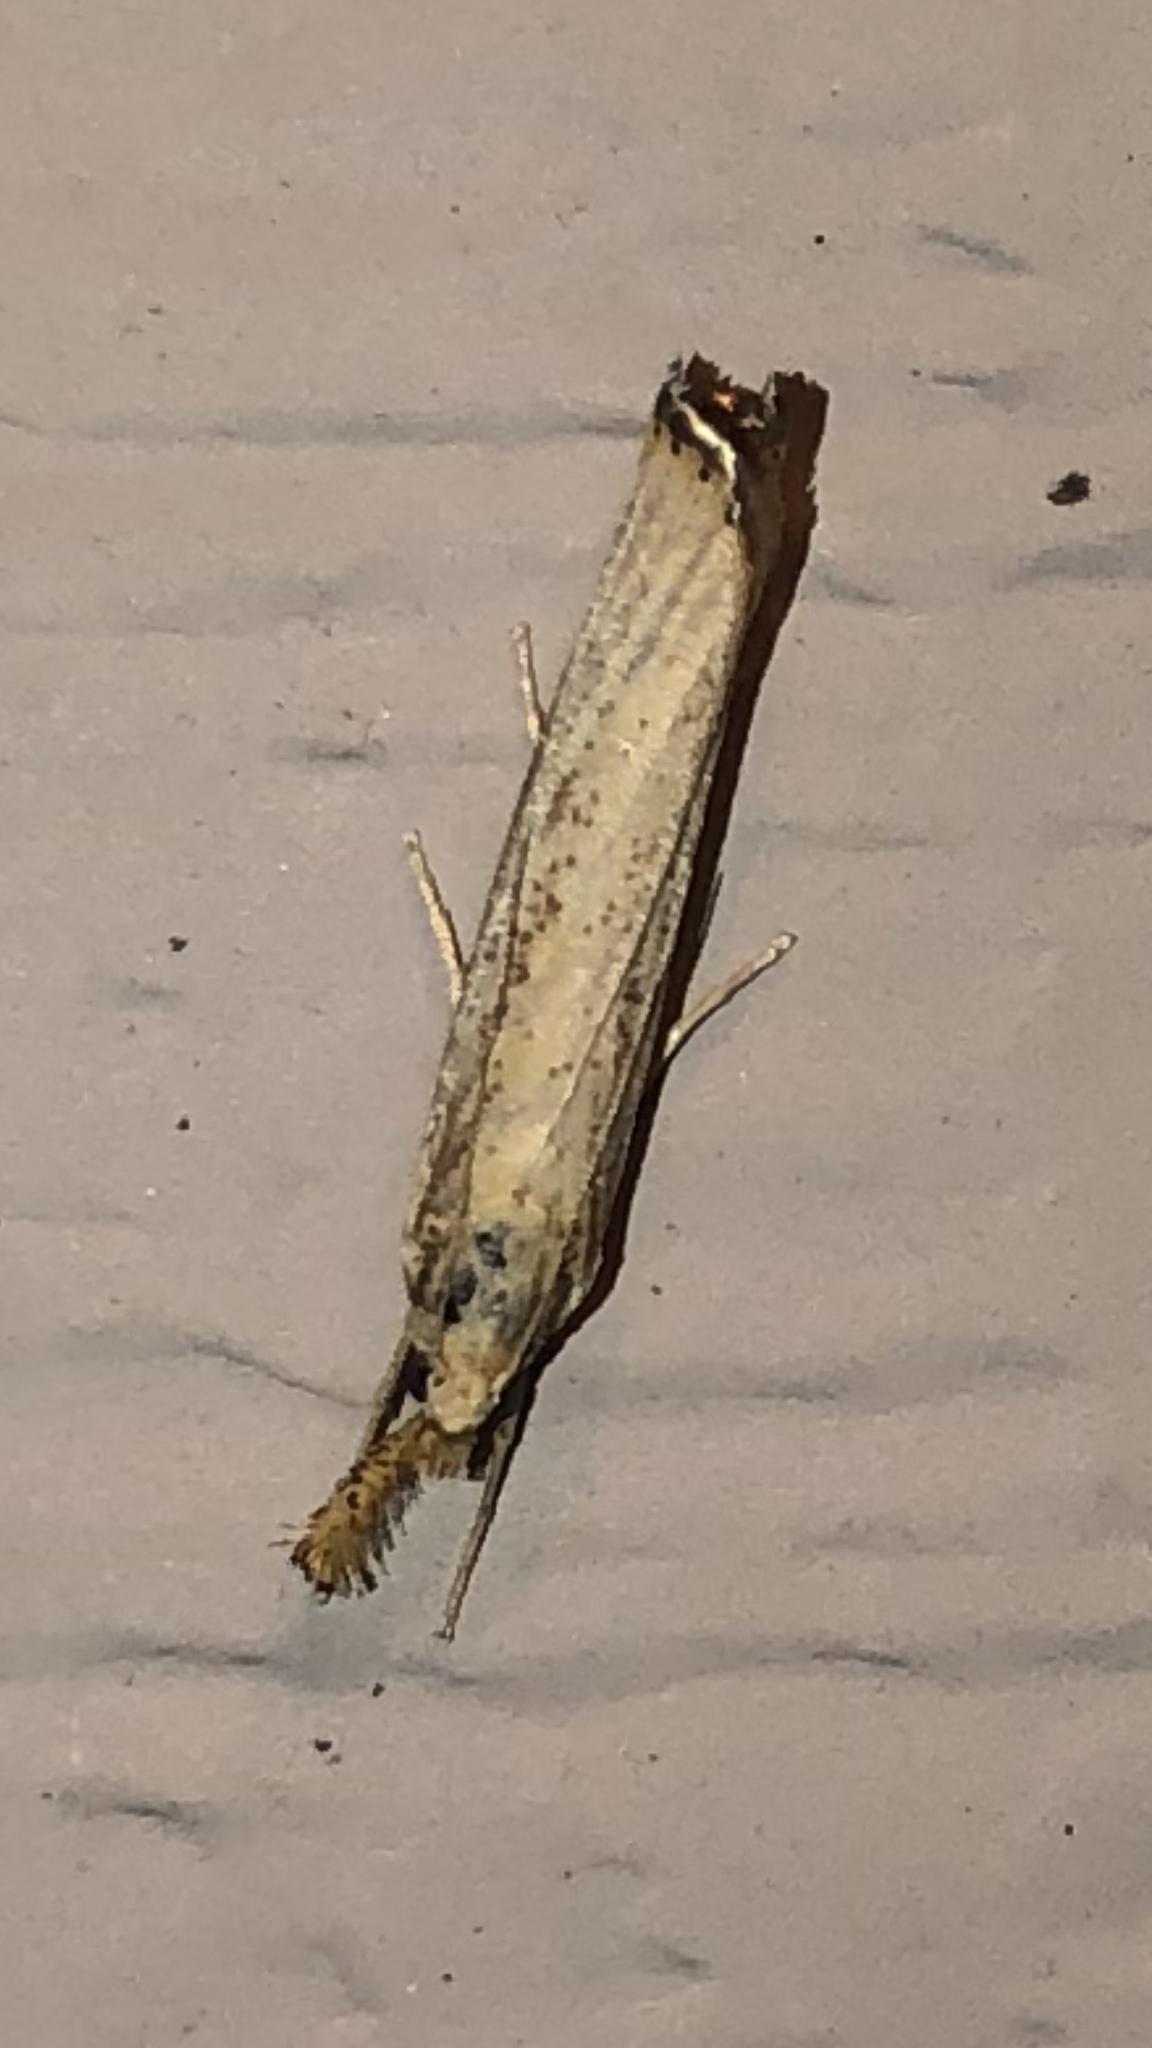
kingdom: Animalia
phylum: Arthropoda
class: Insecta
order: Lepidoptera
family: Crambidae
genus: Agriphila
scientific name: Agriphila vulgivagellus
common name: Vagabond crambus moth
